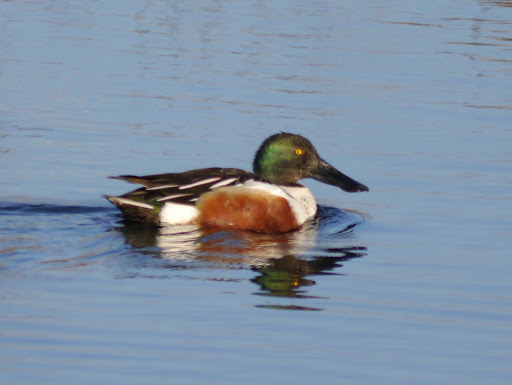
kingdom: Animalia
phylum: Chordata
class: Aves
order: Anseriformes
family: Anatidae
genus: Spatula
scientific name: Spatula clypeata
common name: Northern shoveler
